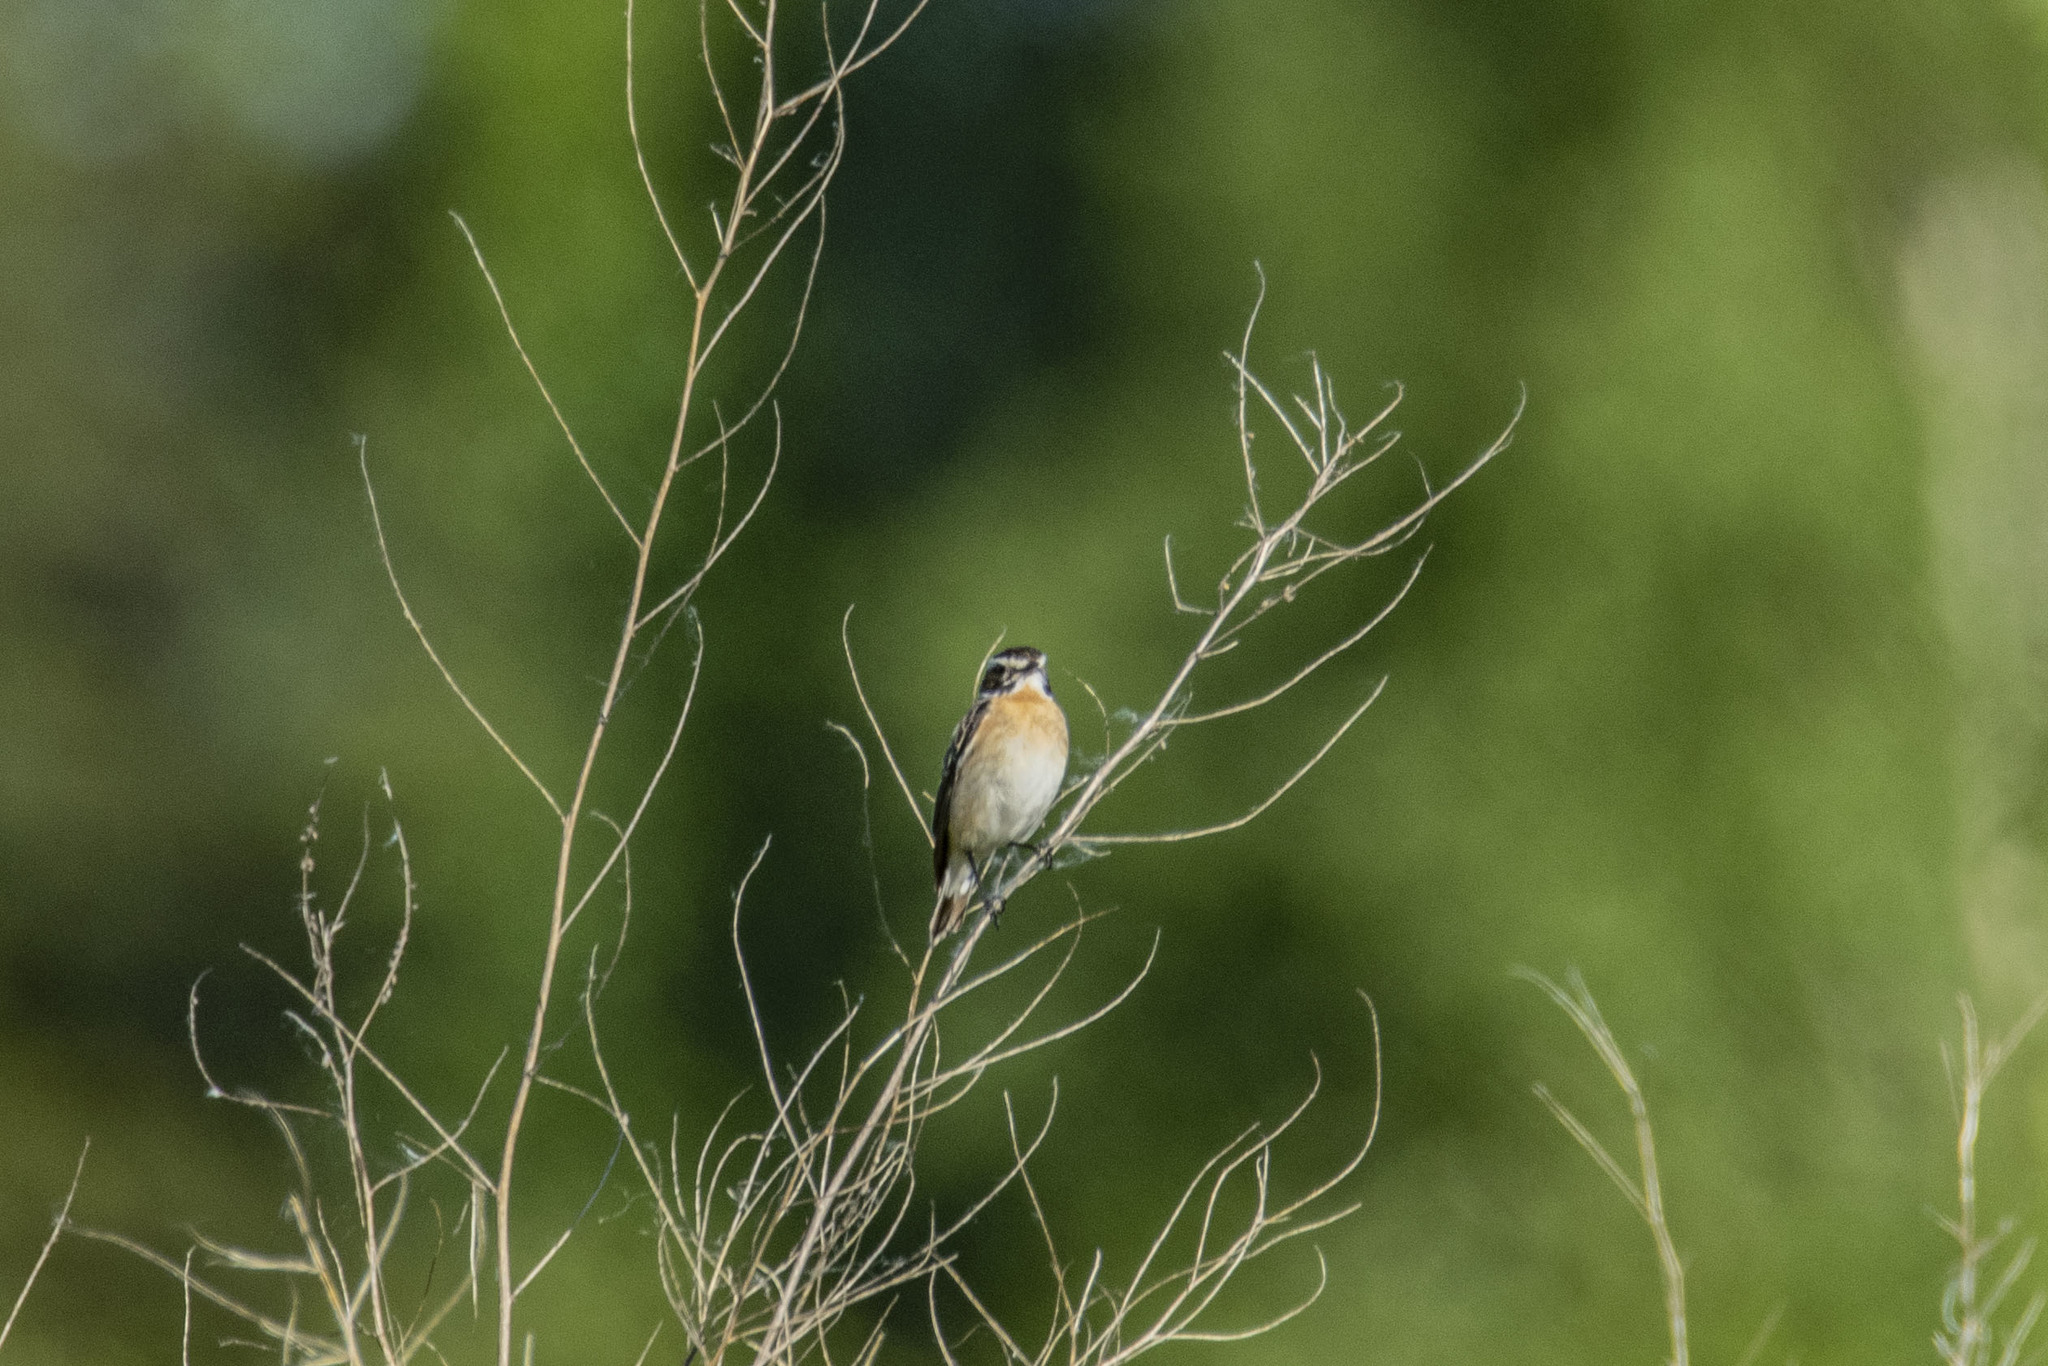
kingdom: Animalia
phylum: Chordata
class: Aves
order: Passeriformes
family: Muscicapidae
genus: Saxicola
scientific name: Saxicola rubetra
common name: Whinchat
